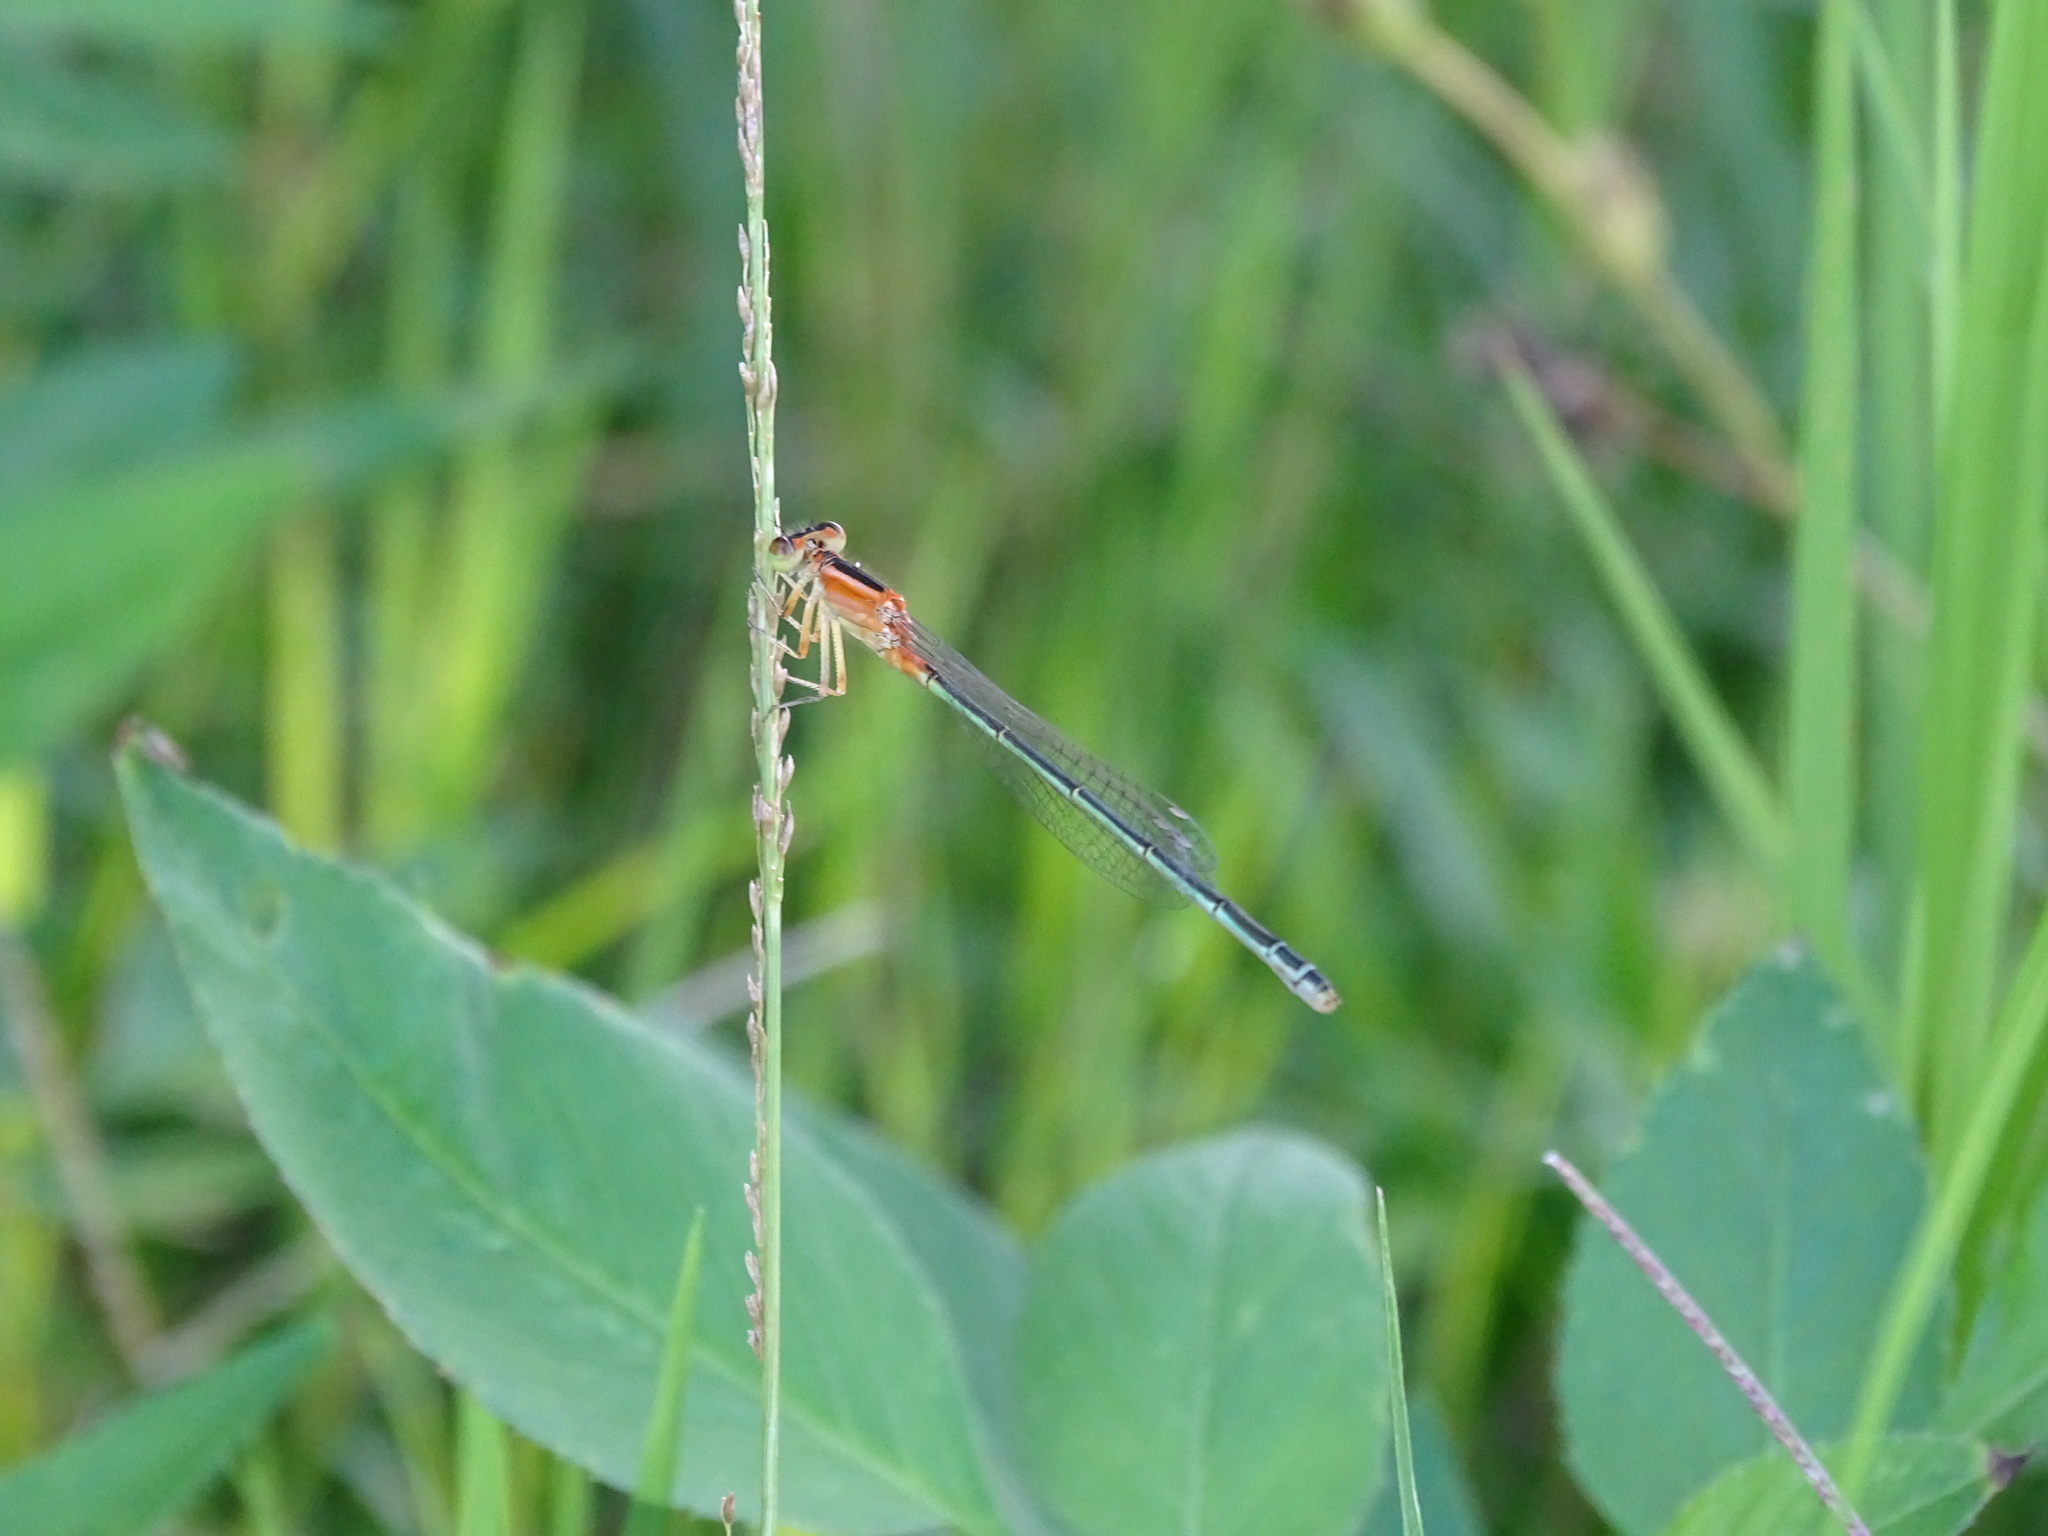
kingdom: Animalia
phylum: Arthropoda
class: Insecta
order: Odonata
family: Coenagrionidae
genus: Ischnura
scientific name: Ischnura senegalensis
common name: Tropical bluetail
